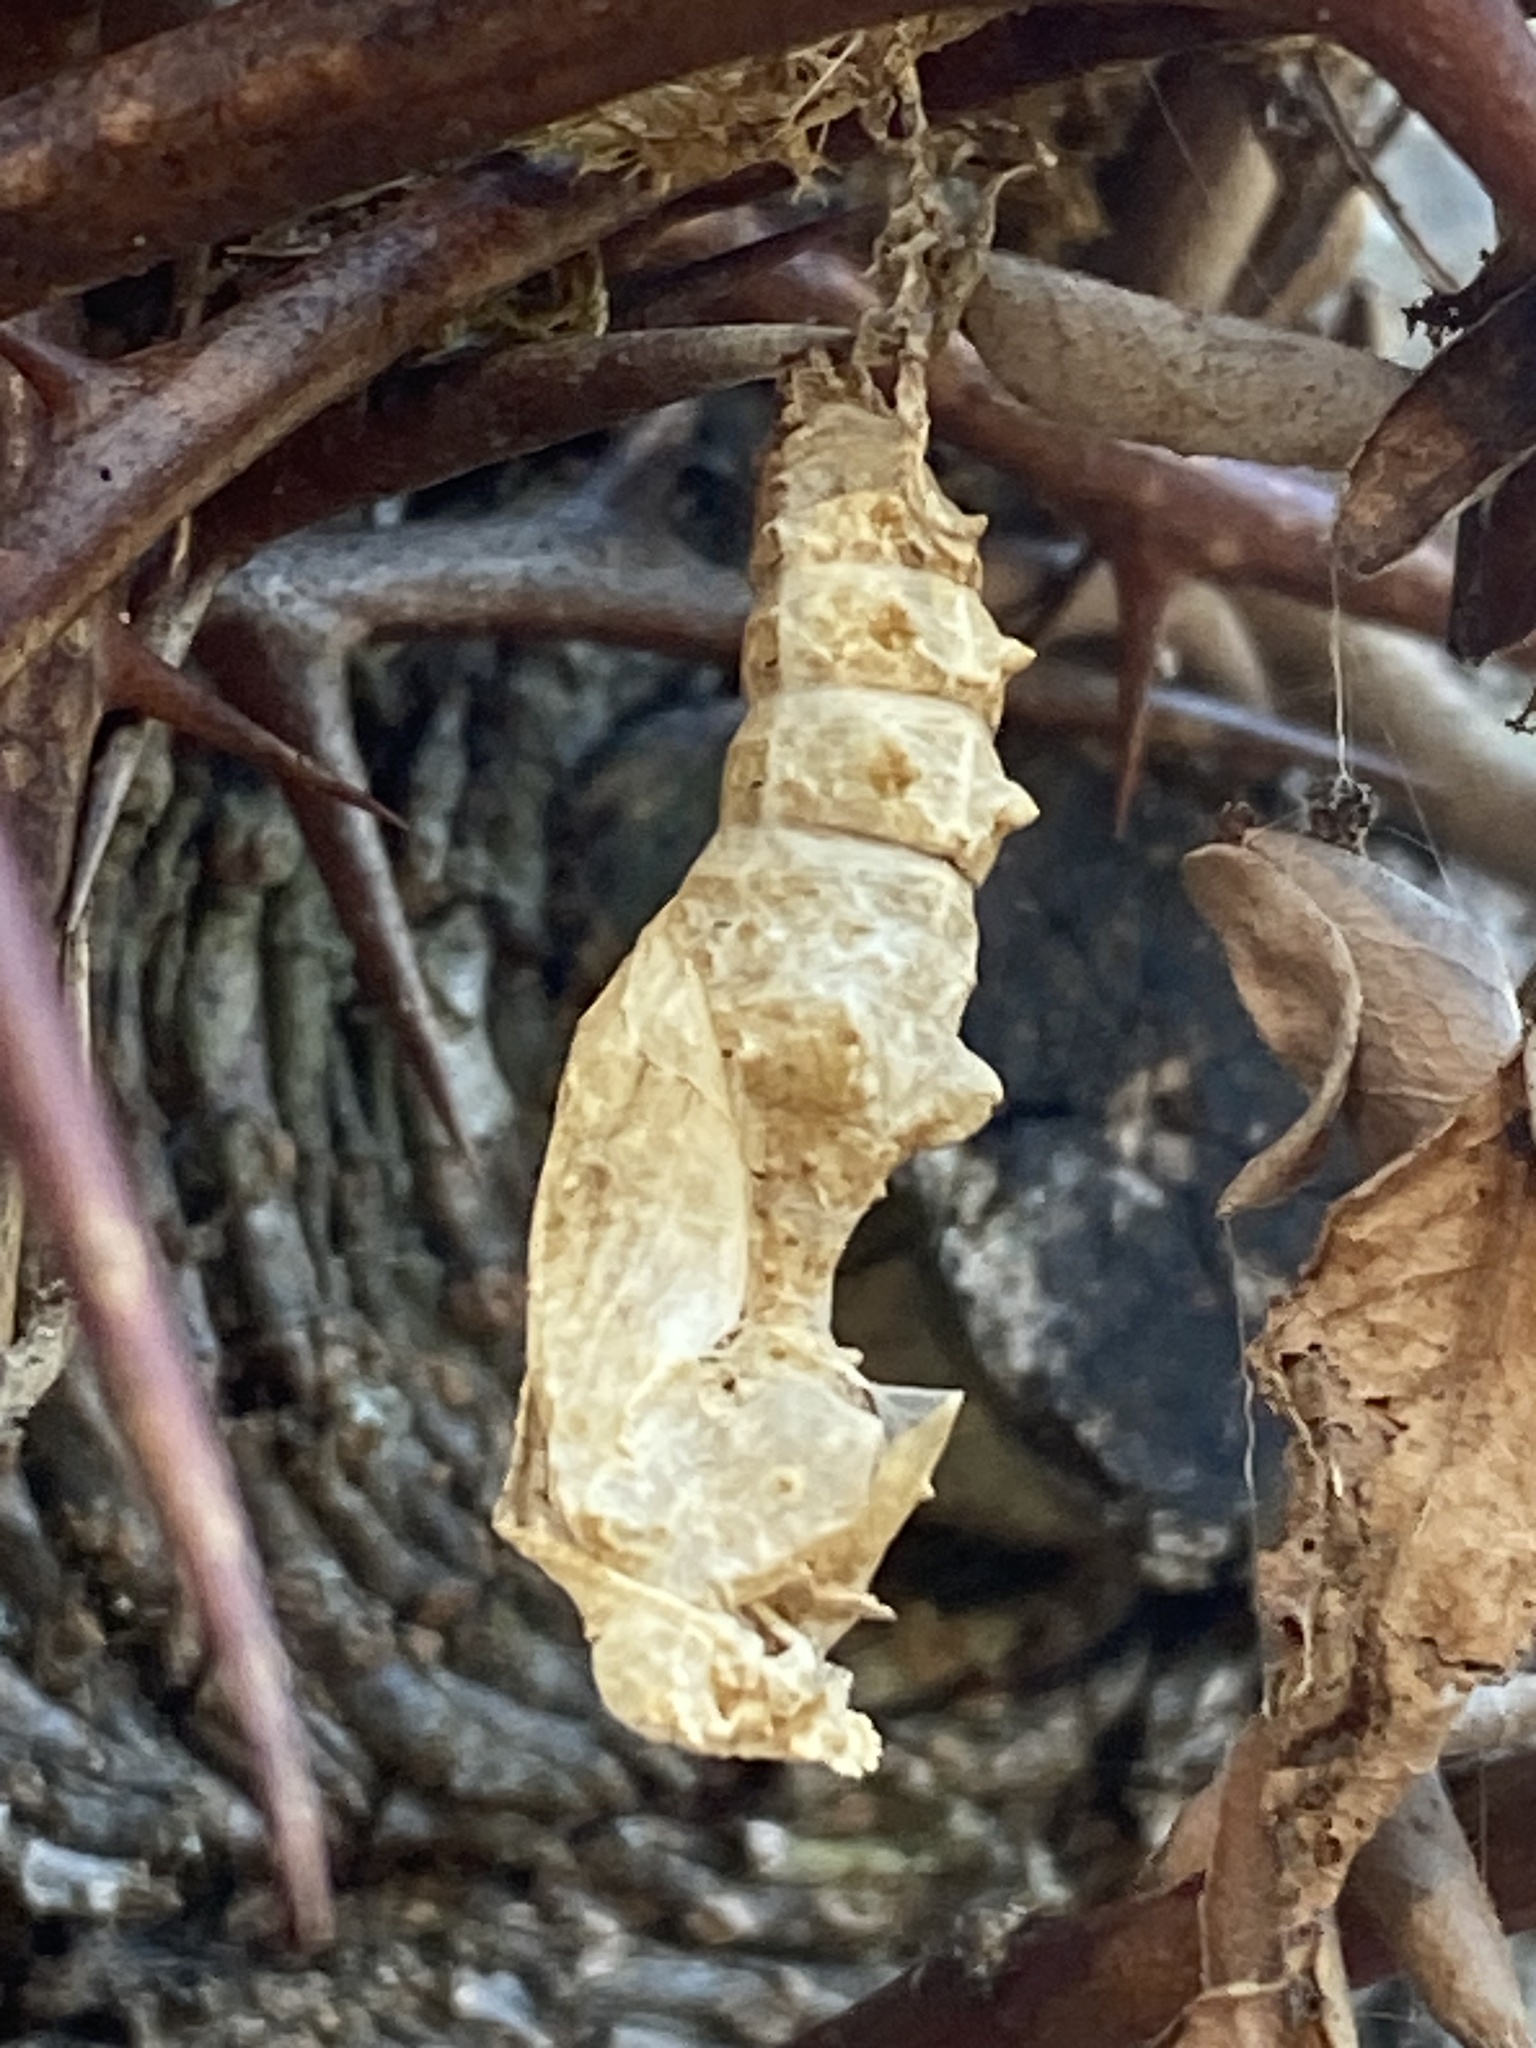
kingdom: Animalia
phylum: Arthropoda
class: Insecta
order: Lepidoptera
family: Nymphalidae
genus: Dione
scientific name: Dione vanillae
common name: Gulf fritillary
